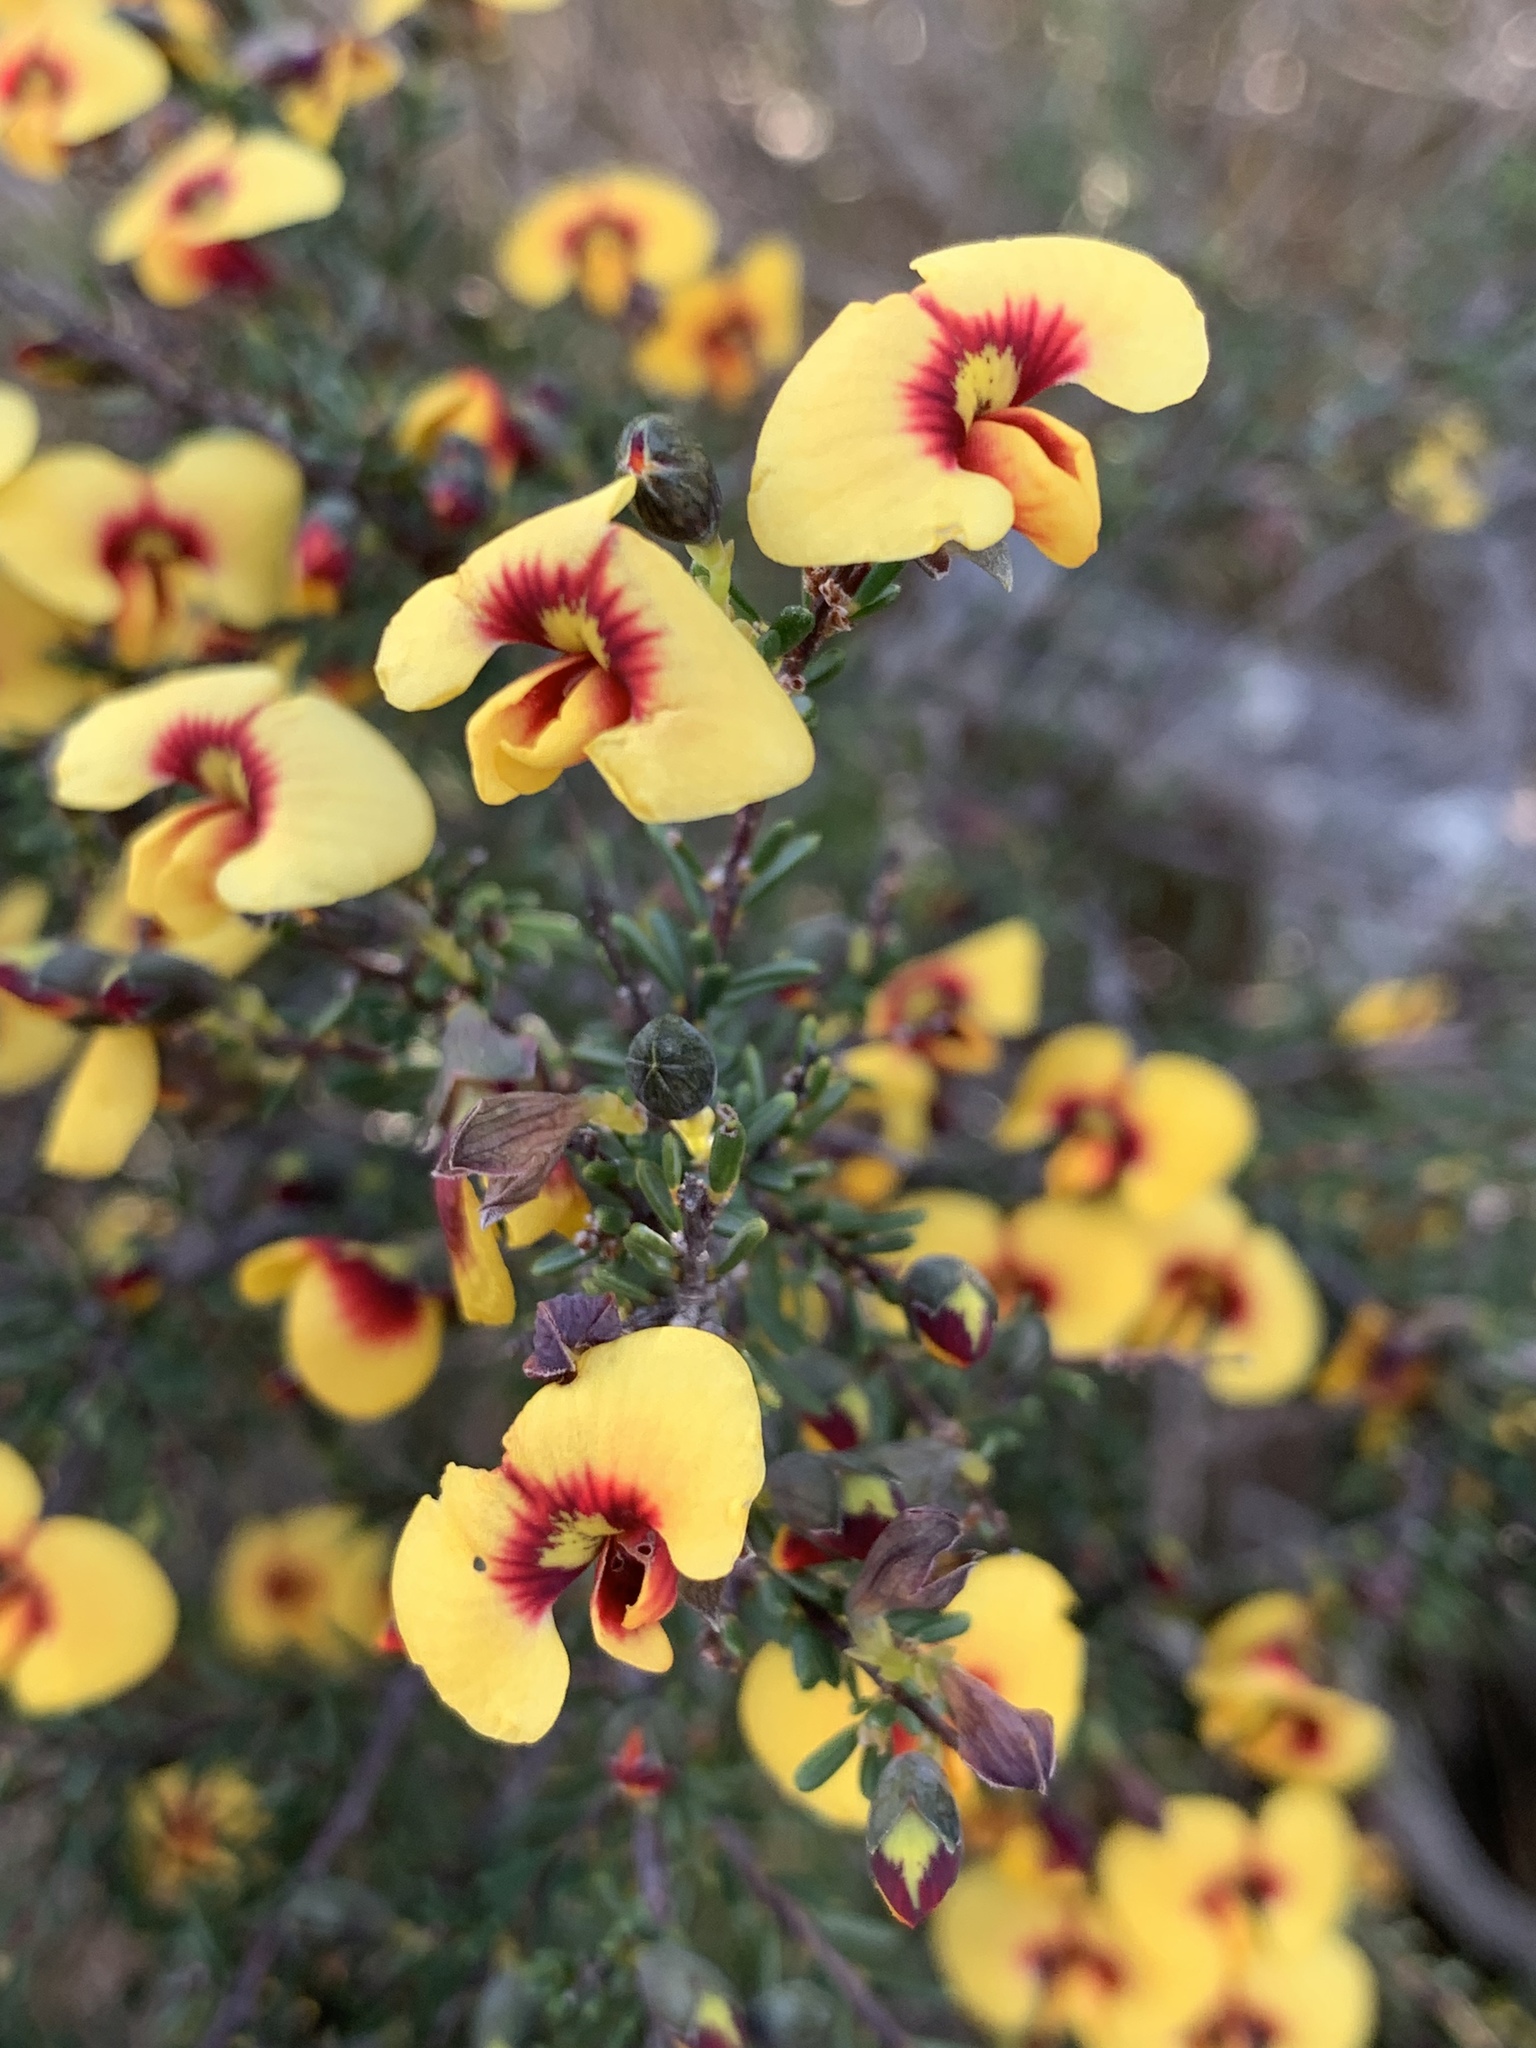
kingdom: Plantae
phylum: Tracheophyta
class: Magnoliopsida
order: Fabales
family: Fabaceae
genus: Dillwynia
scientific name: Dillwynia ramosissima
